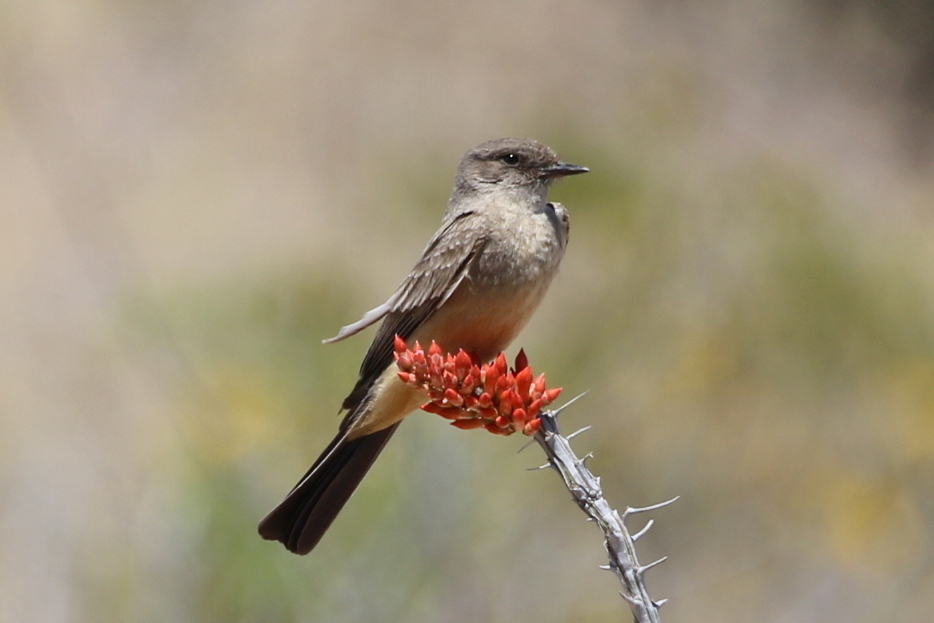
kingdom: Animalia
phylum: Chordata
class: Aves
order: Passeriformes
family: Tyrannidae
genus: Sayornis
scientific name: Sayornis saya
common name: Say's phoebe
